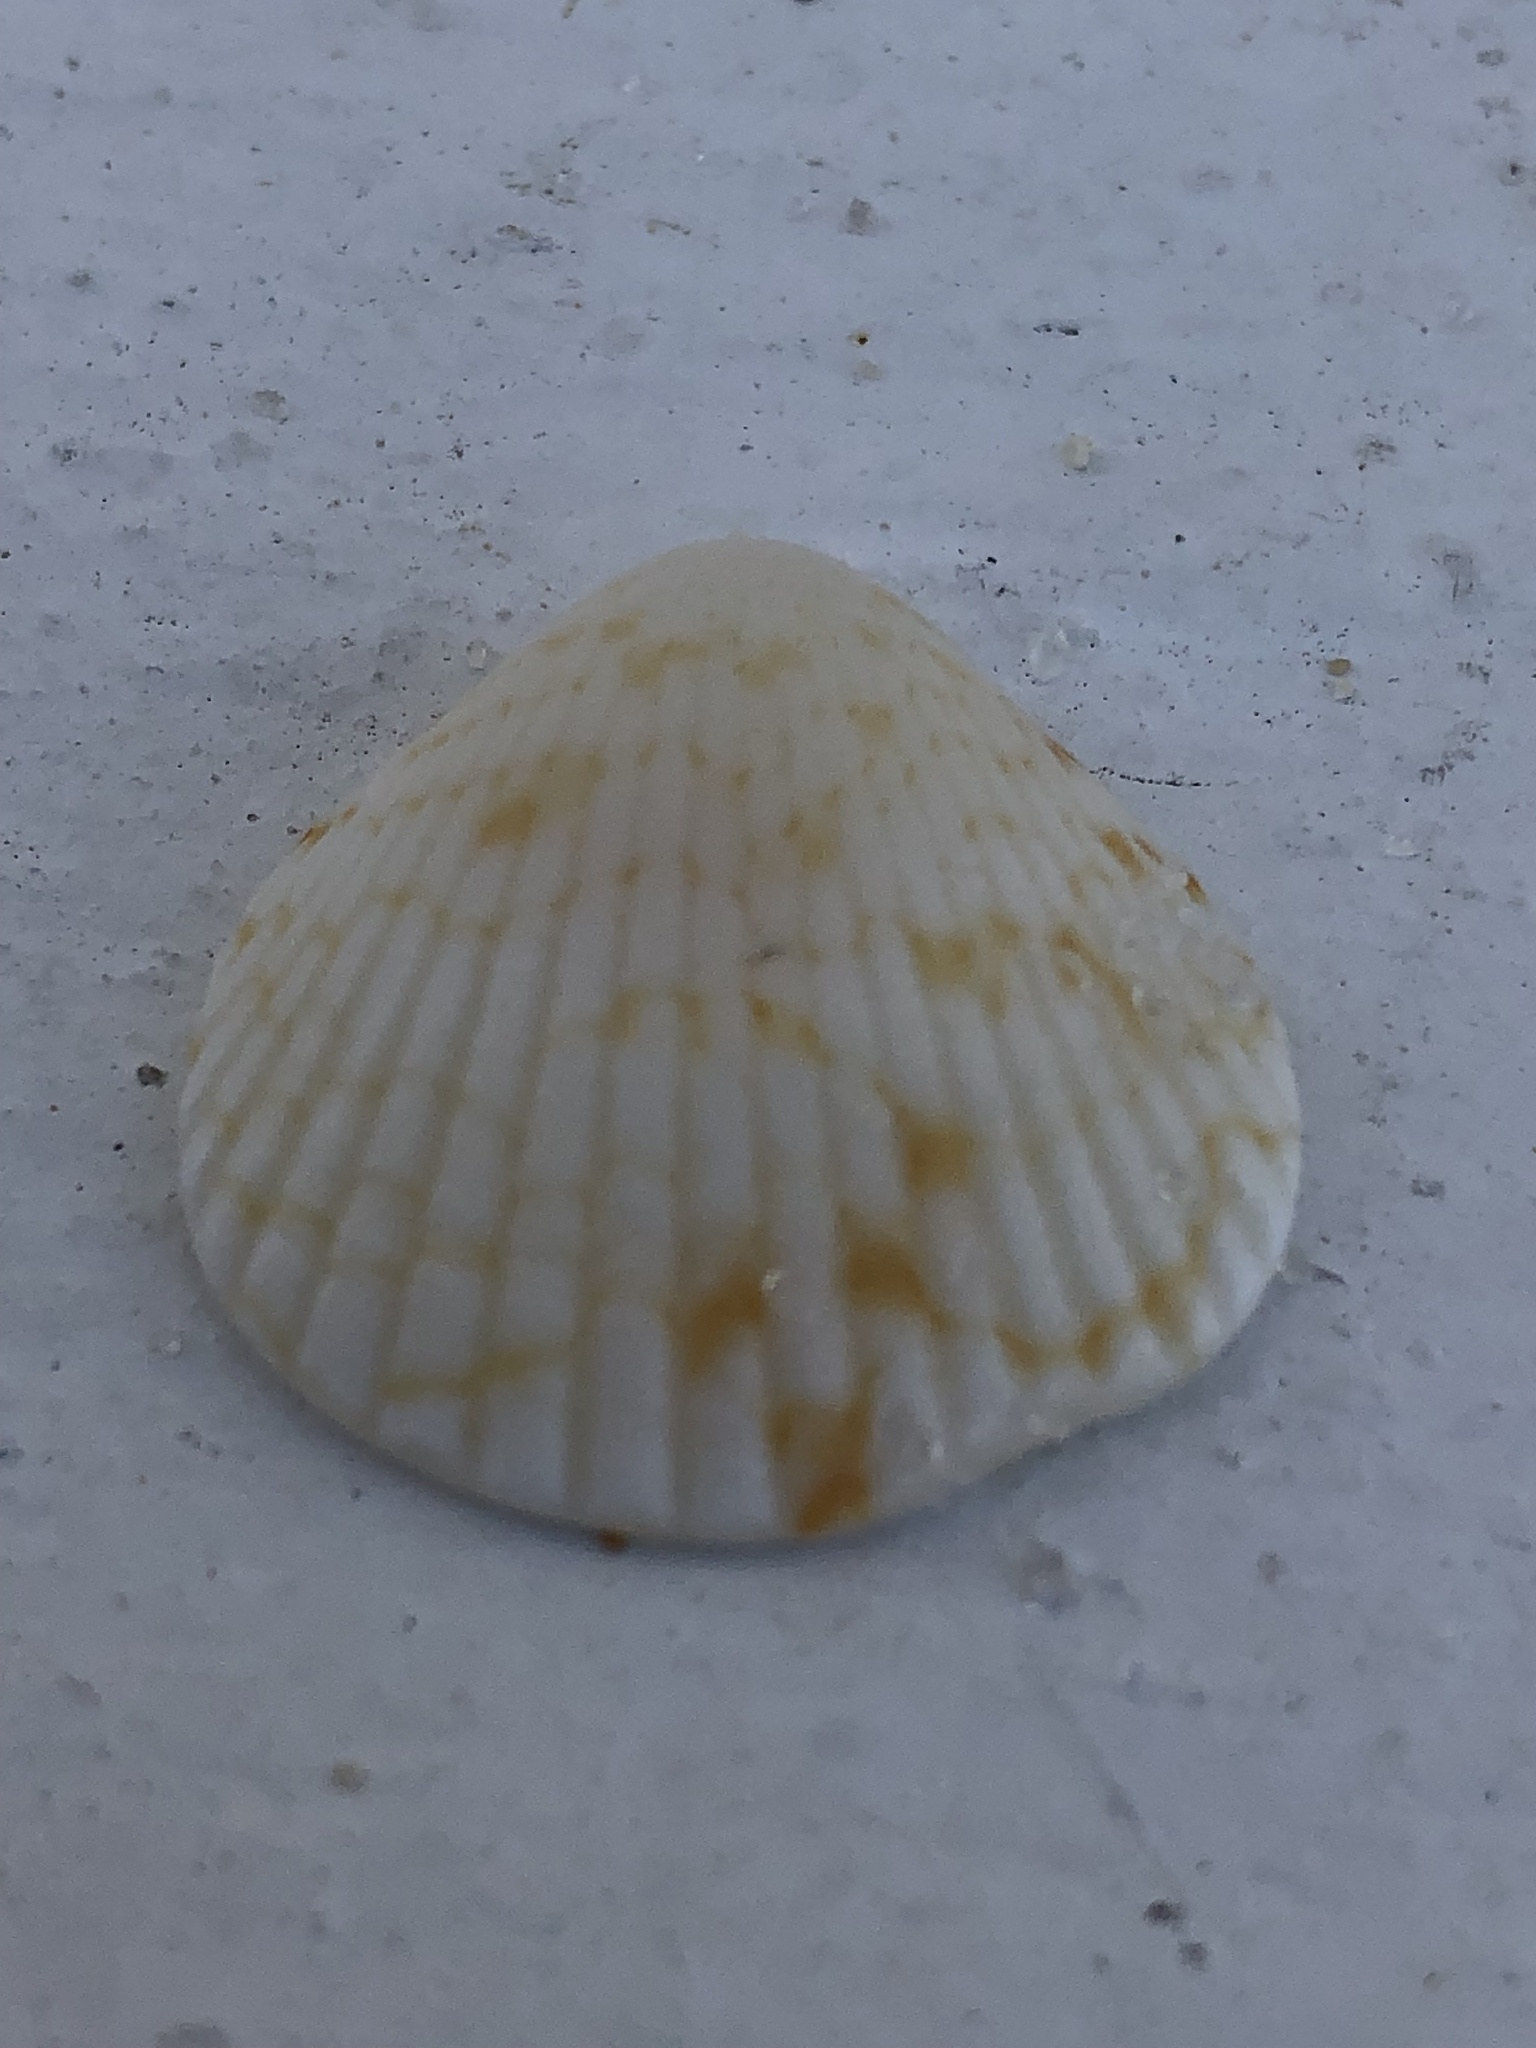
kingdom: Animalia
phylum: Mollusca
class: Bivalvia
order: Arcida
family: Glycymerididae
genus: Tucetona
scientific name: Tucetona pectinata
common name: Comb bittersweet
